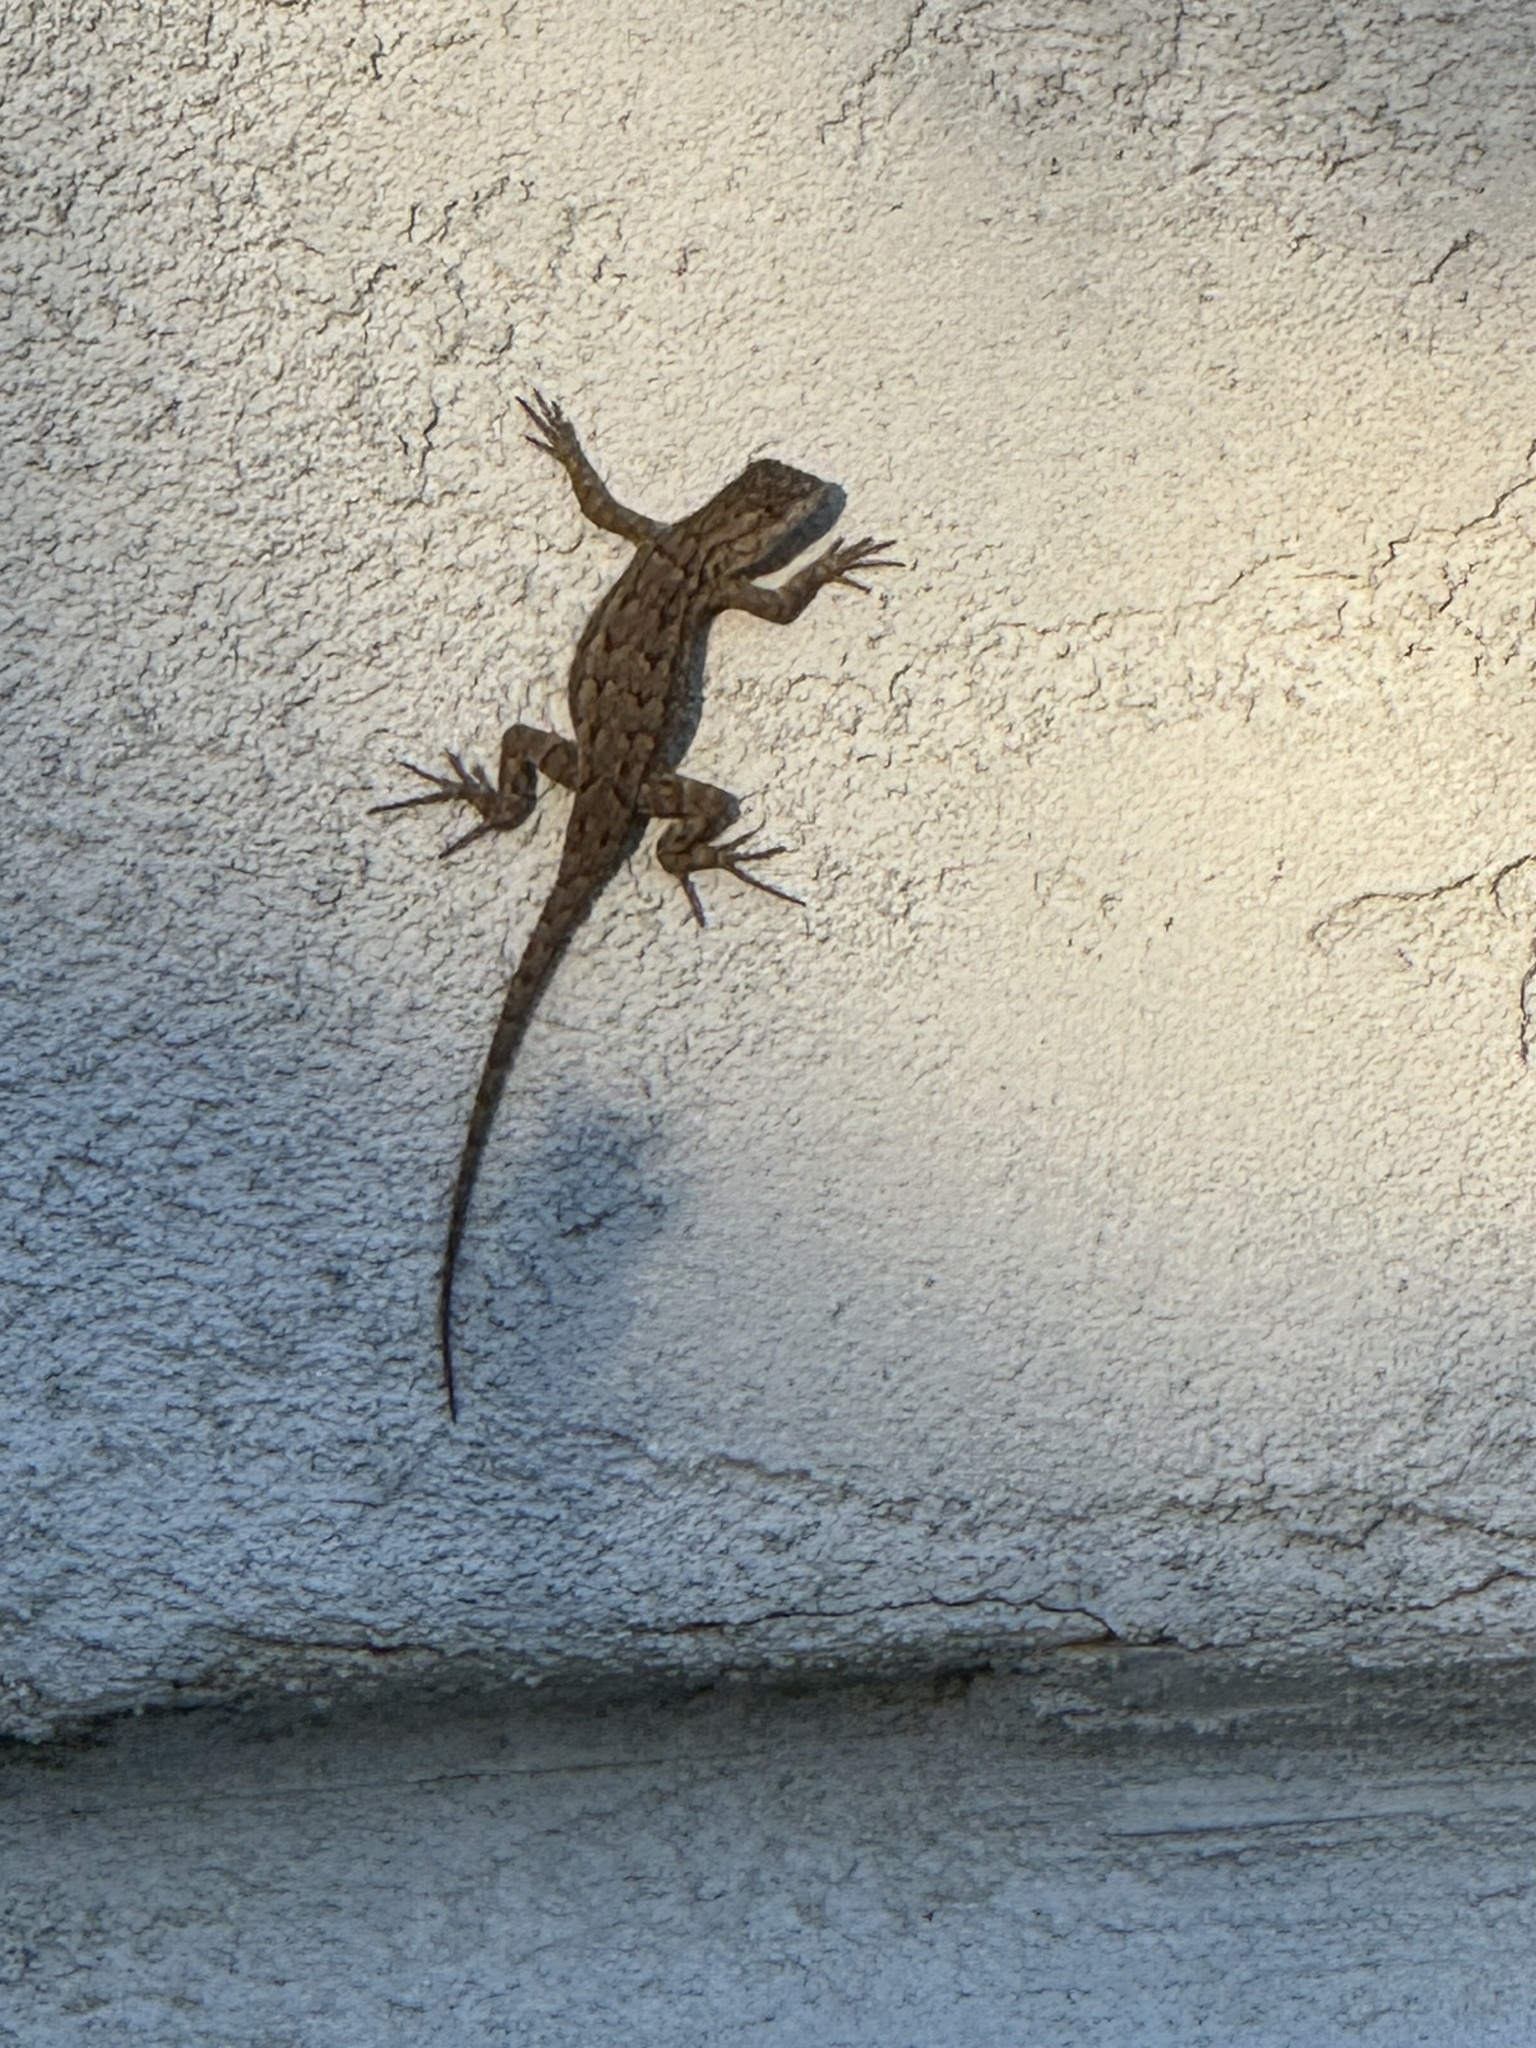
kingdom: Animalia
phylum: Chordata
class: Squamata
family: Phrynosomatidae
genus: Sceloporus
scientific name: Sceloporus occidentalis
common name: Western fence lizard
